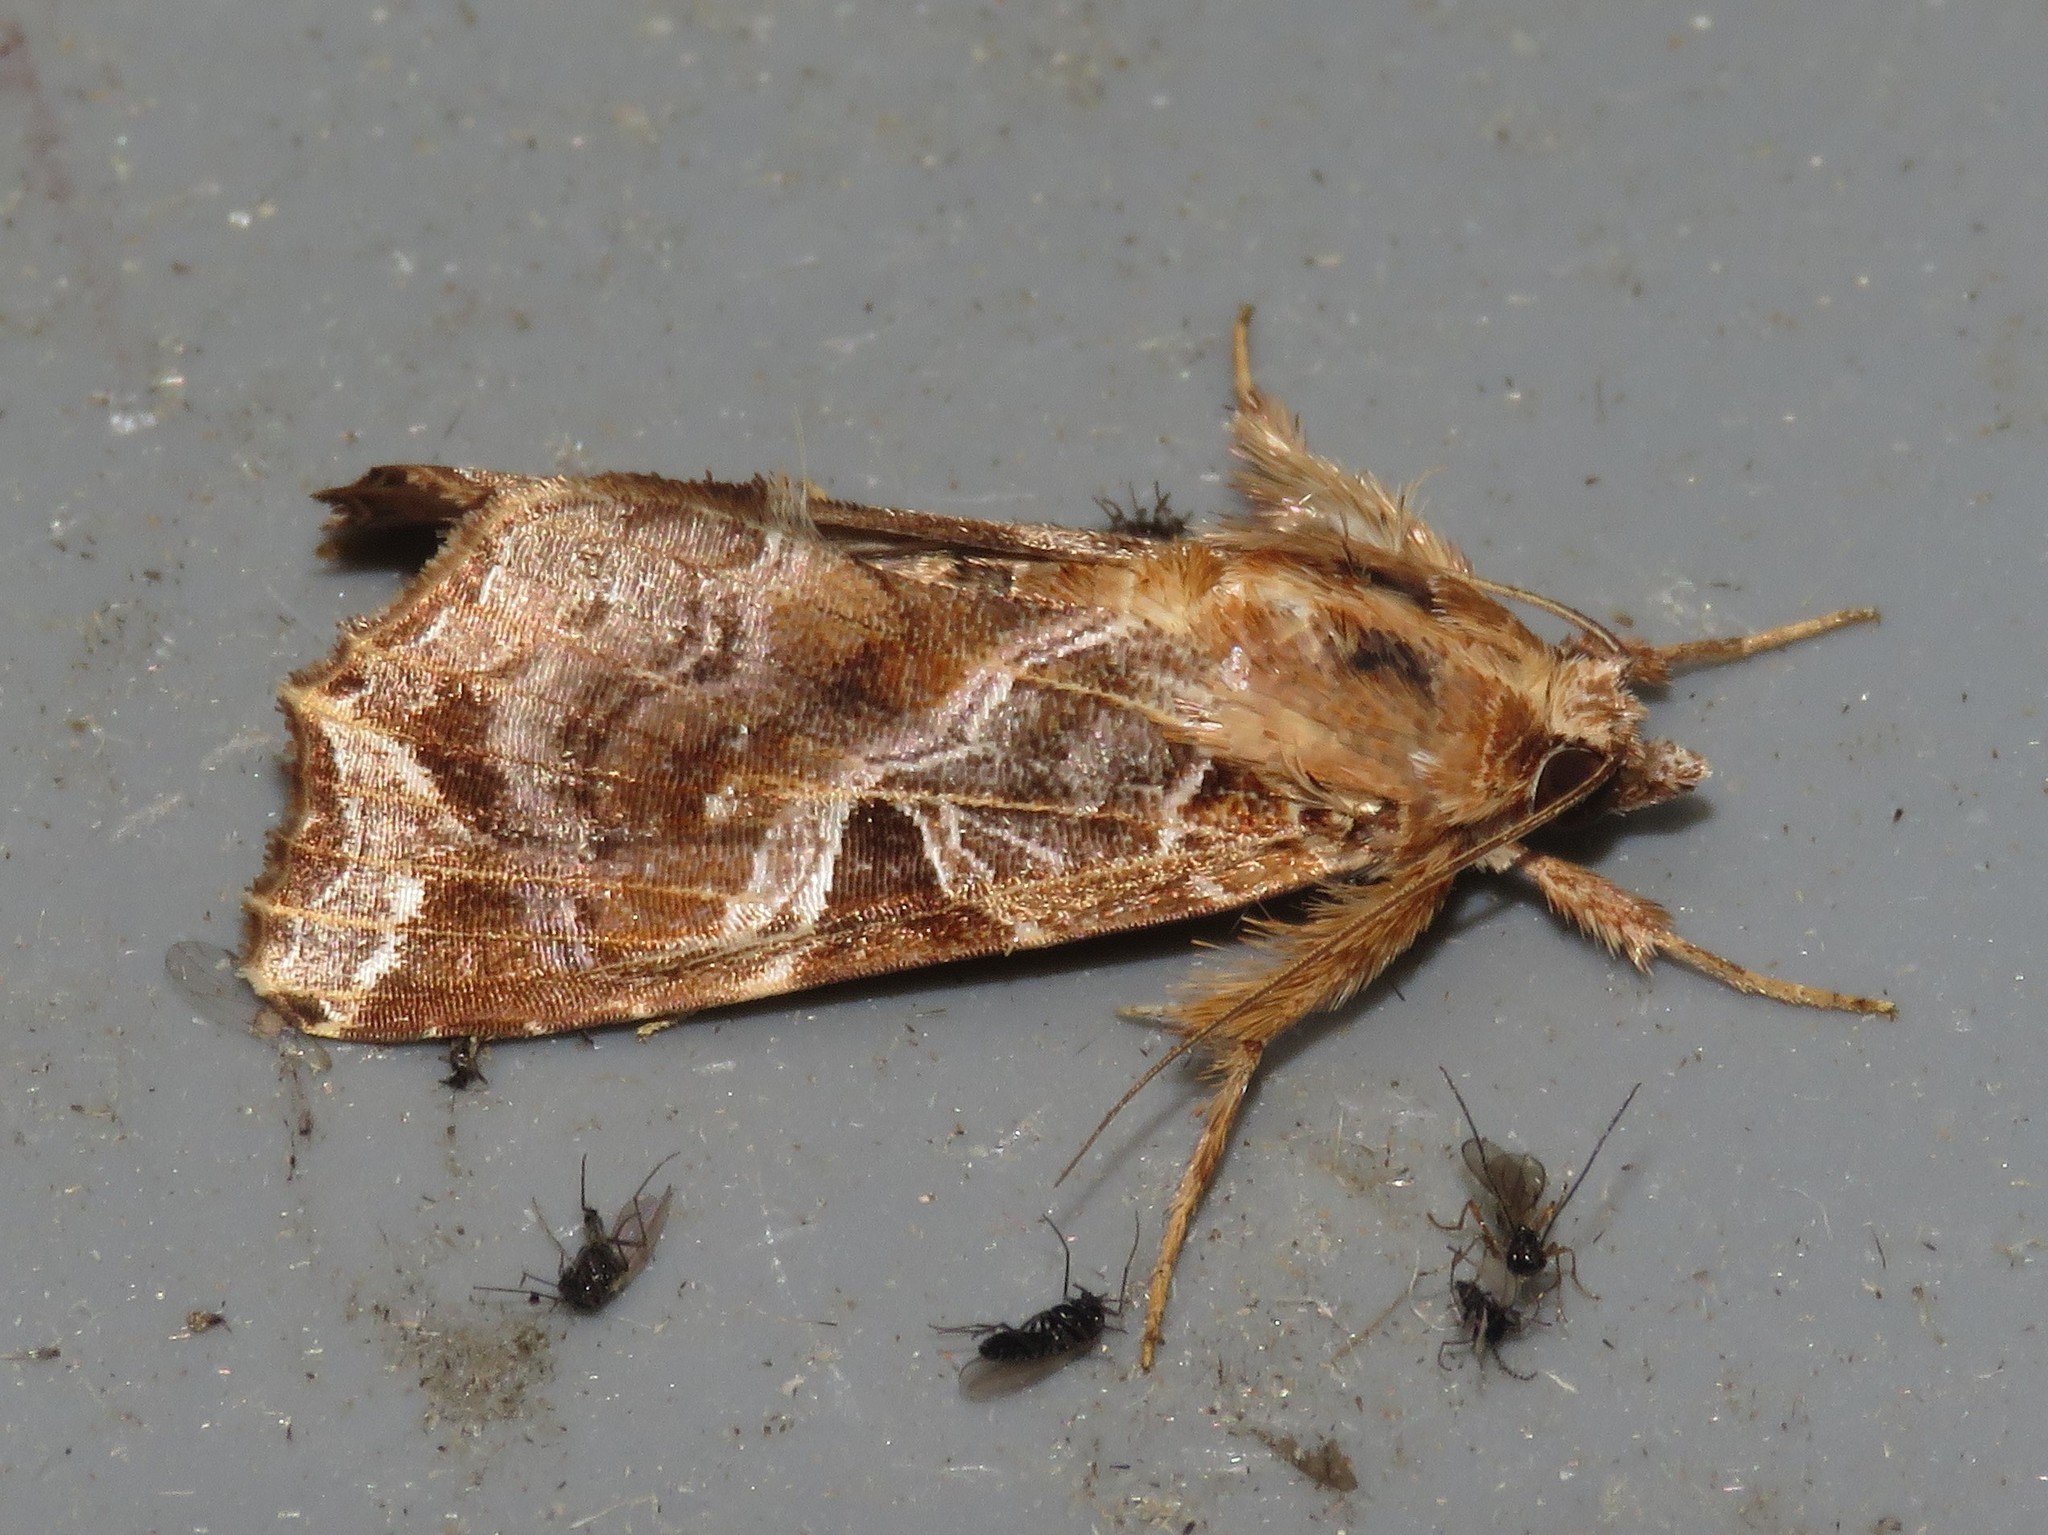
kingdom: Animalia
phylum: Arthropoda
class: Insecta
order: Lepidoptera
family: Noctuidae
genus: Callopistria
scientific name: Callopistria floridensis
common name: Florida fern moth
